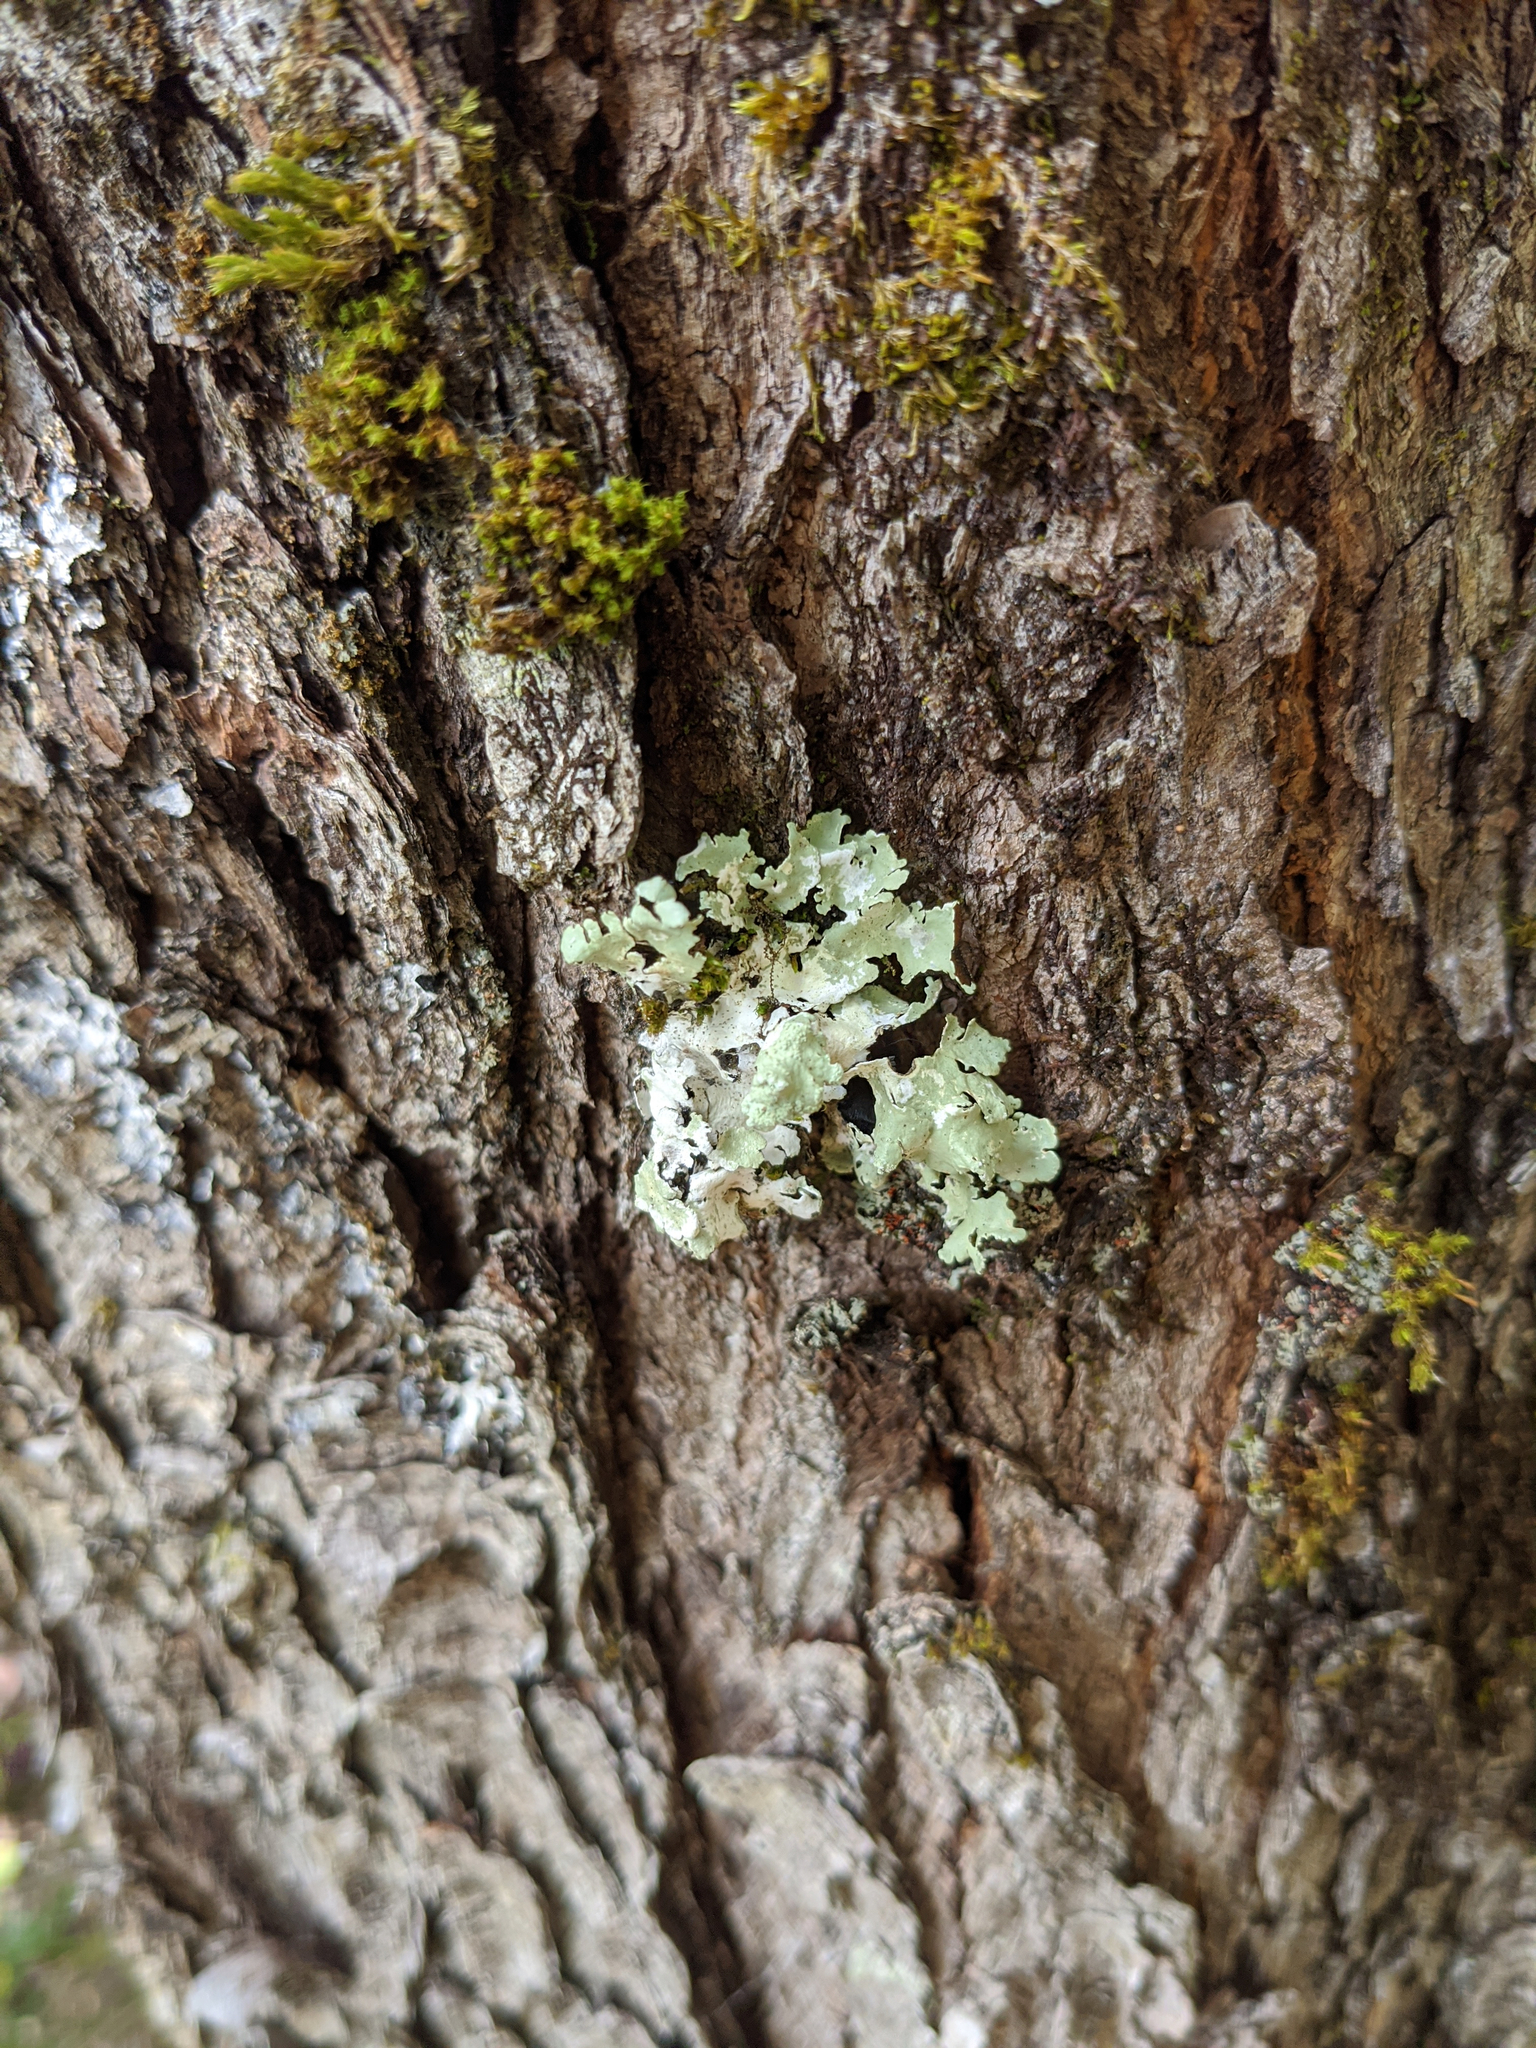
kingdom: Plantae
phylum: Bryophyta
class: Bryopsida
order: Orthotrichales
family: Orthotrichaceae
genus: Ulota
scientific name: Ulota crispa
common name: Crisped pincushion moss
